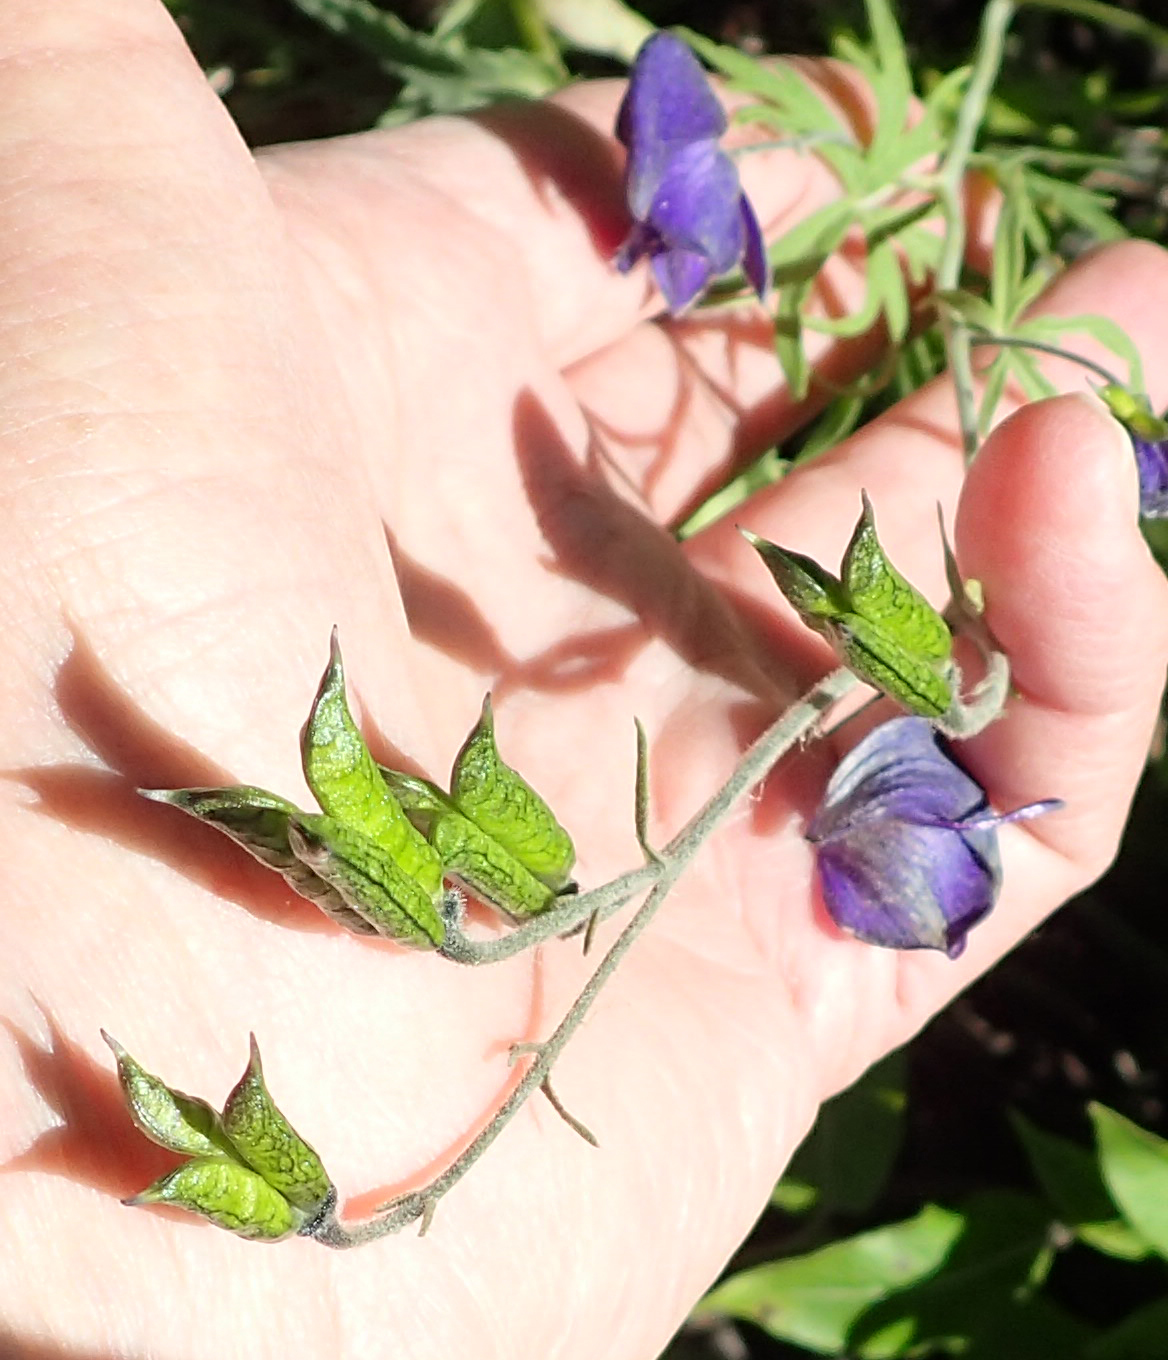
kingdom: Plantae
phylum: Tracheophyta
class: Magnoliopsida
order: Ranunculales
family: Ranunculaceae
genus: Aconitum
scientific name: Aconitum delphiniifolium
